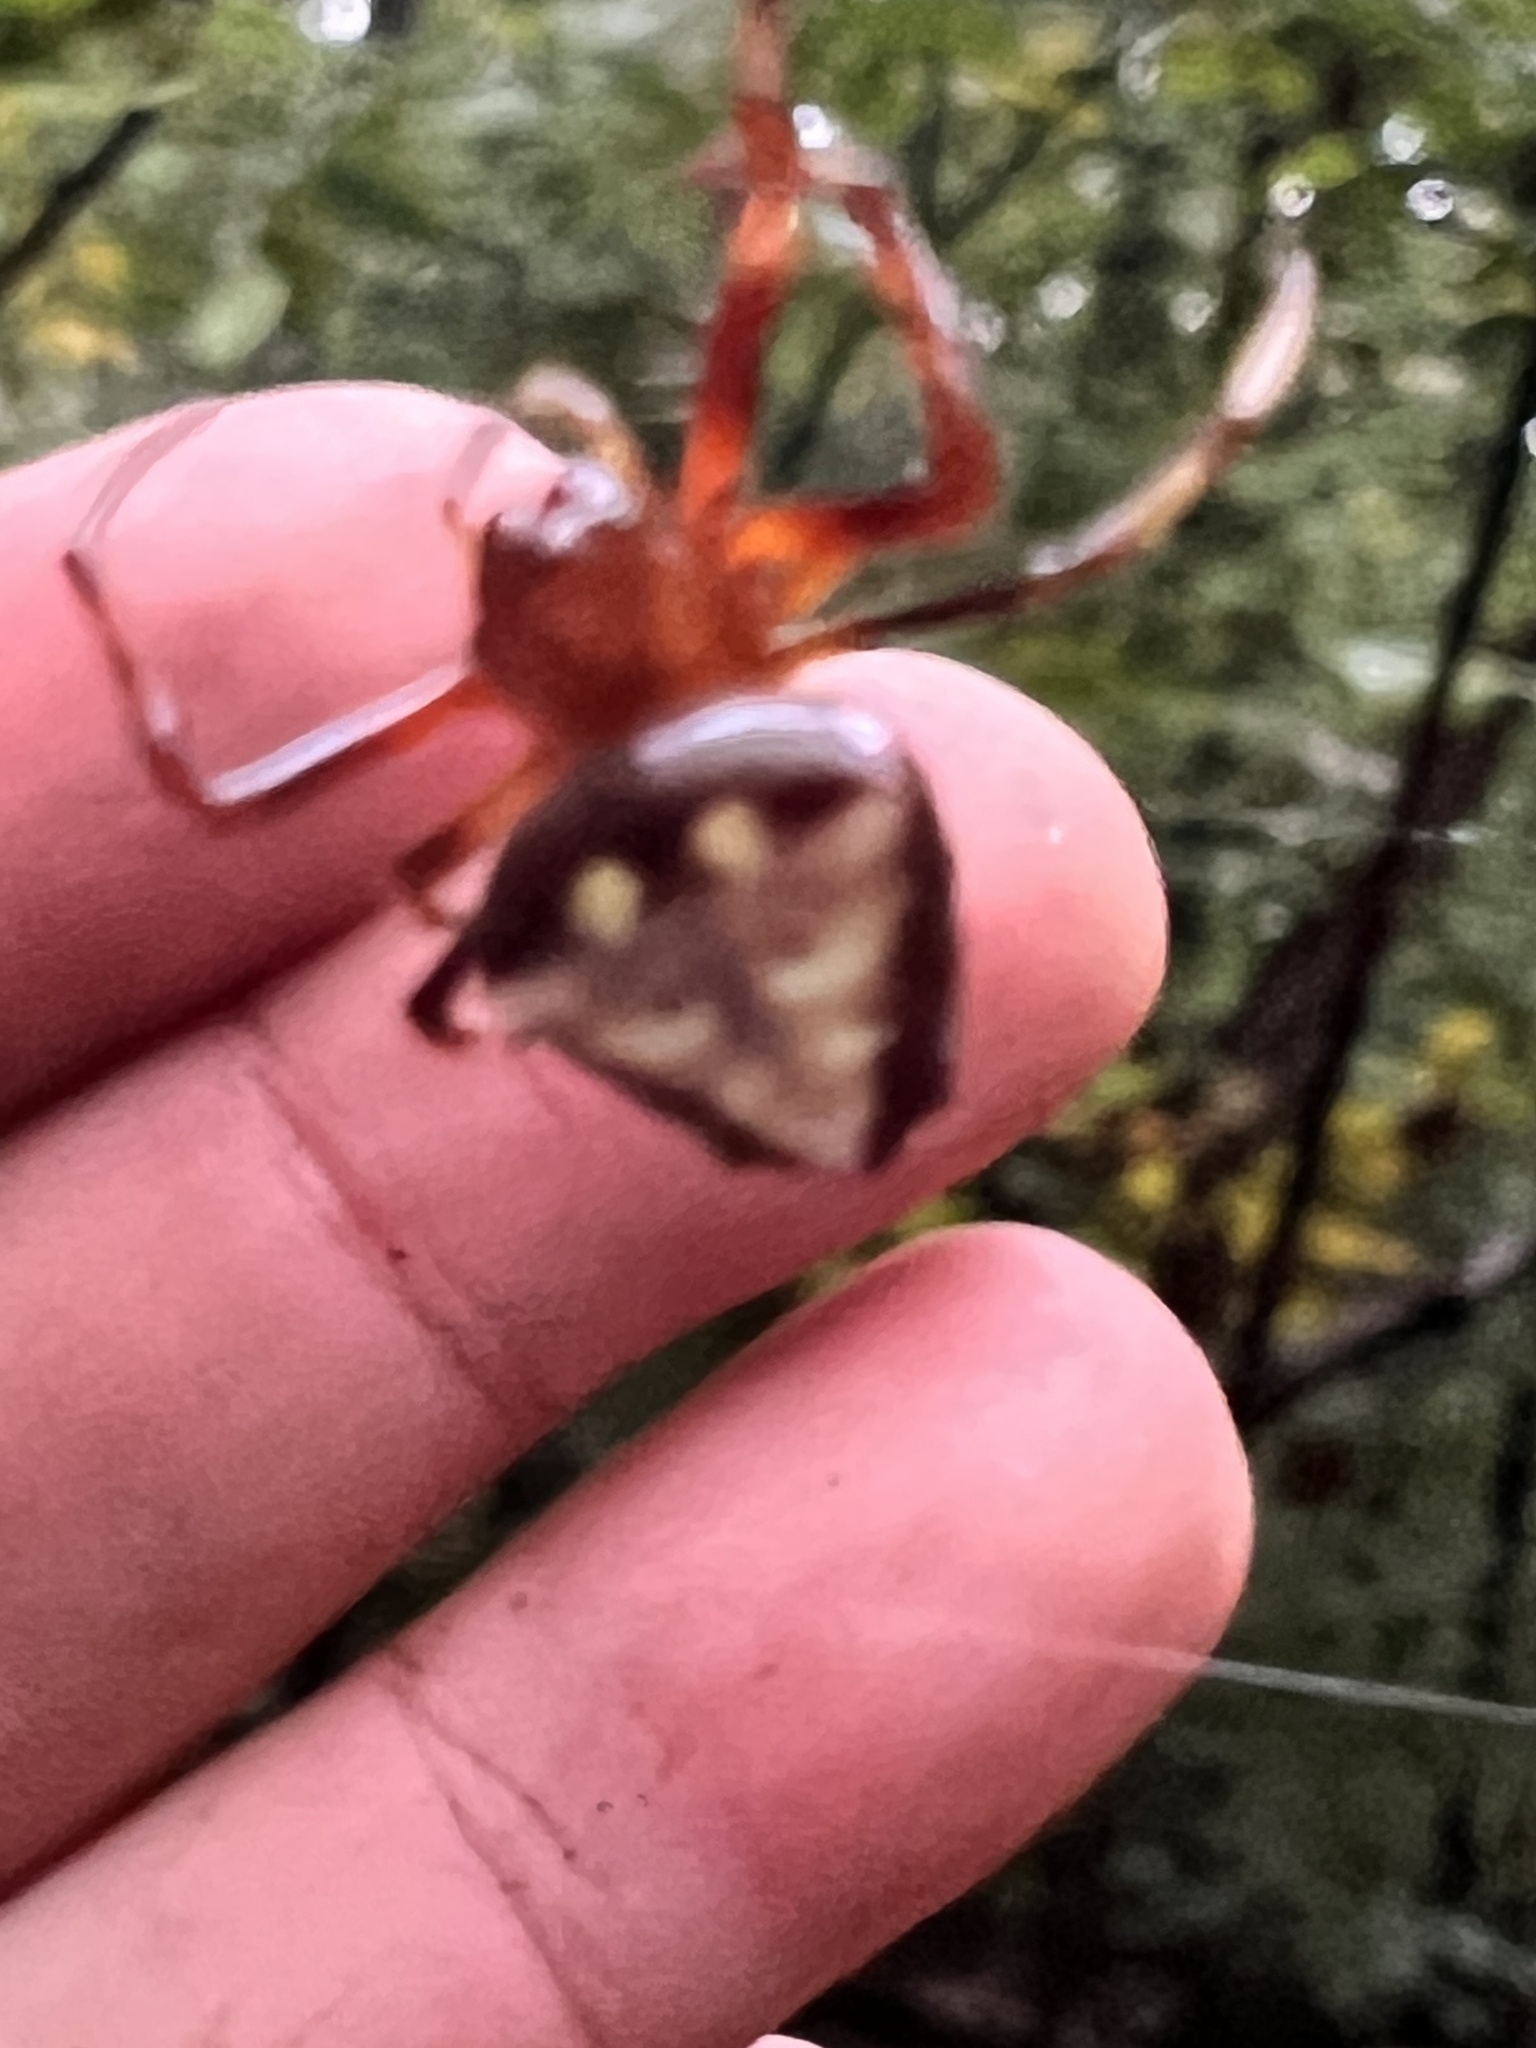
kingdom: Animalia
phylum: Arthropoda
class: Arachnida
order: Araneae
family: Araneidae
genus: Verrucosa
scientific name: Verrucosa arenata
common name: Orb weavers
